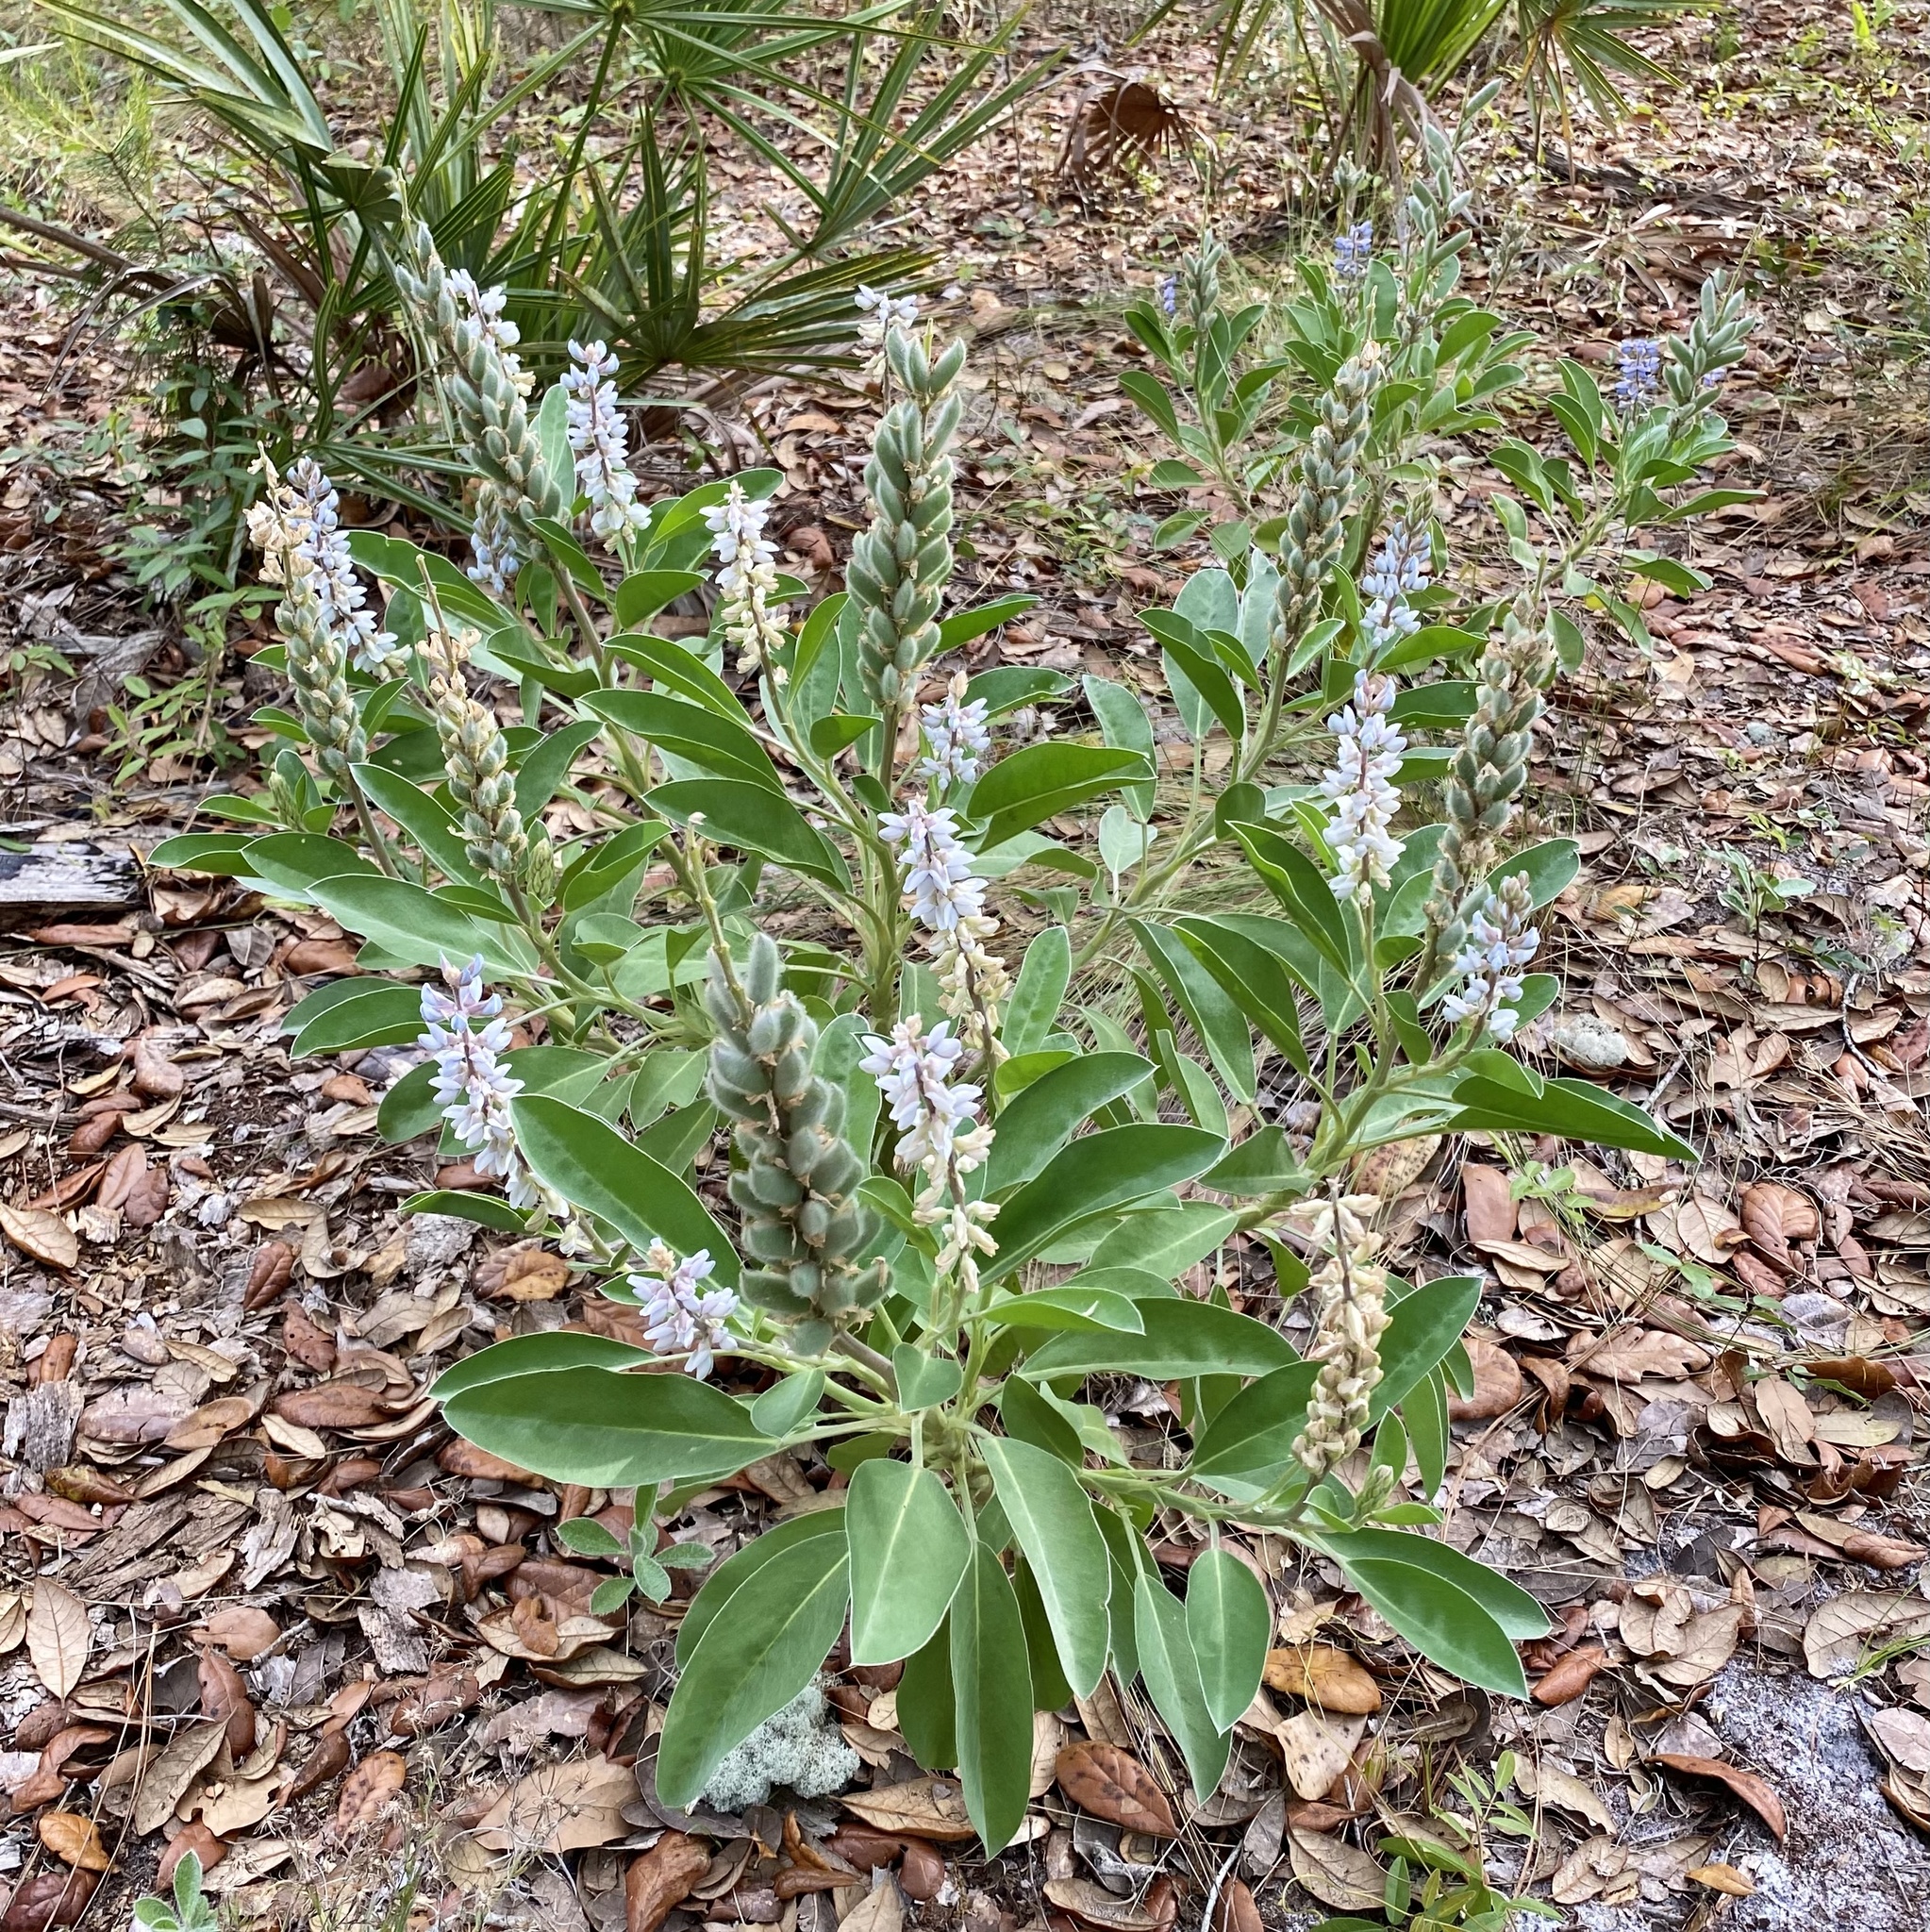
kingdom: Plantae
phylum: Tracheophyta
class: Magnoliopsida
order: Fabales
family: Fabaceae
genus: Lupinus
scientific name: Lupinus
